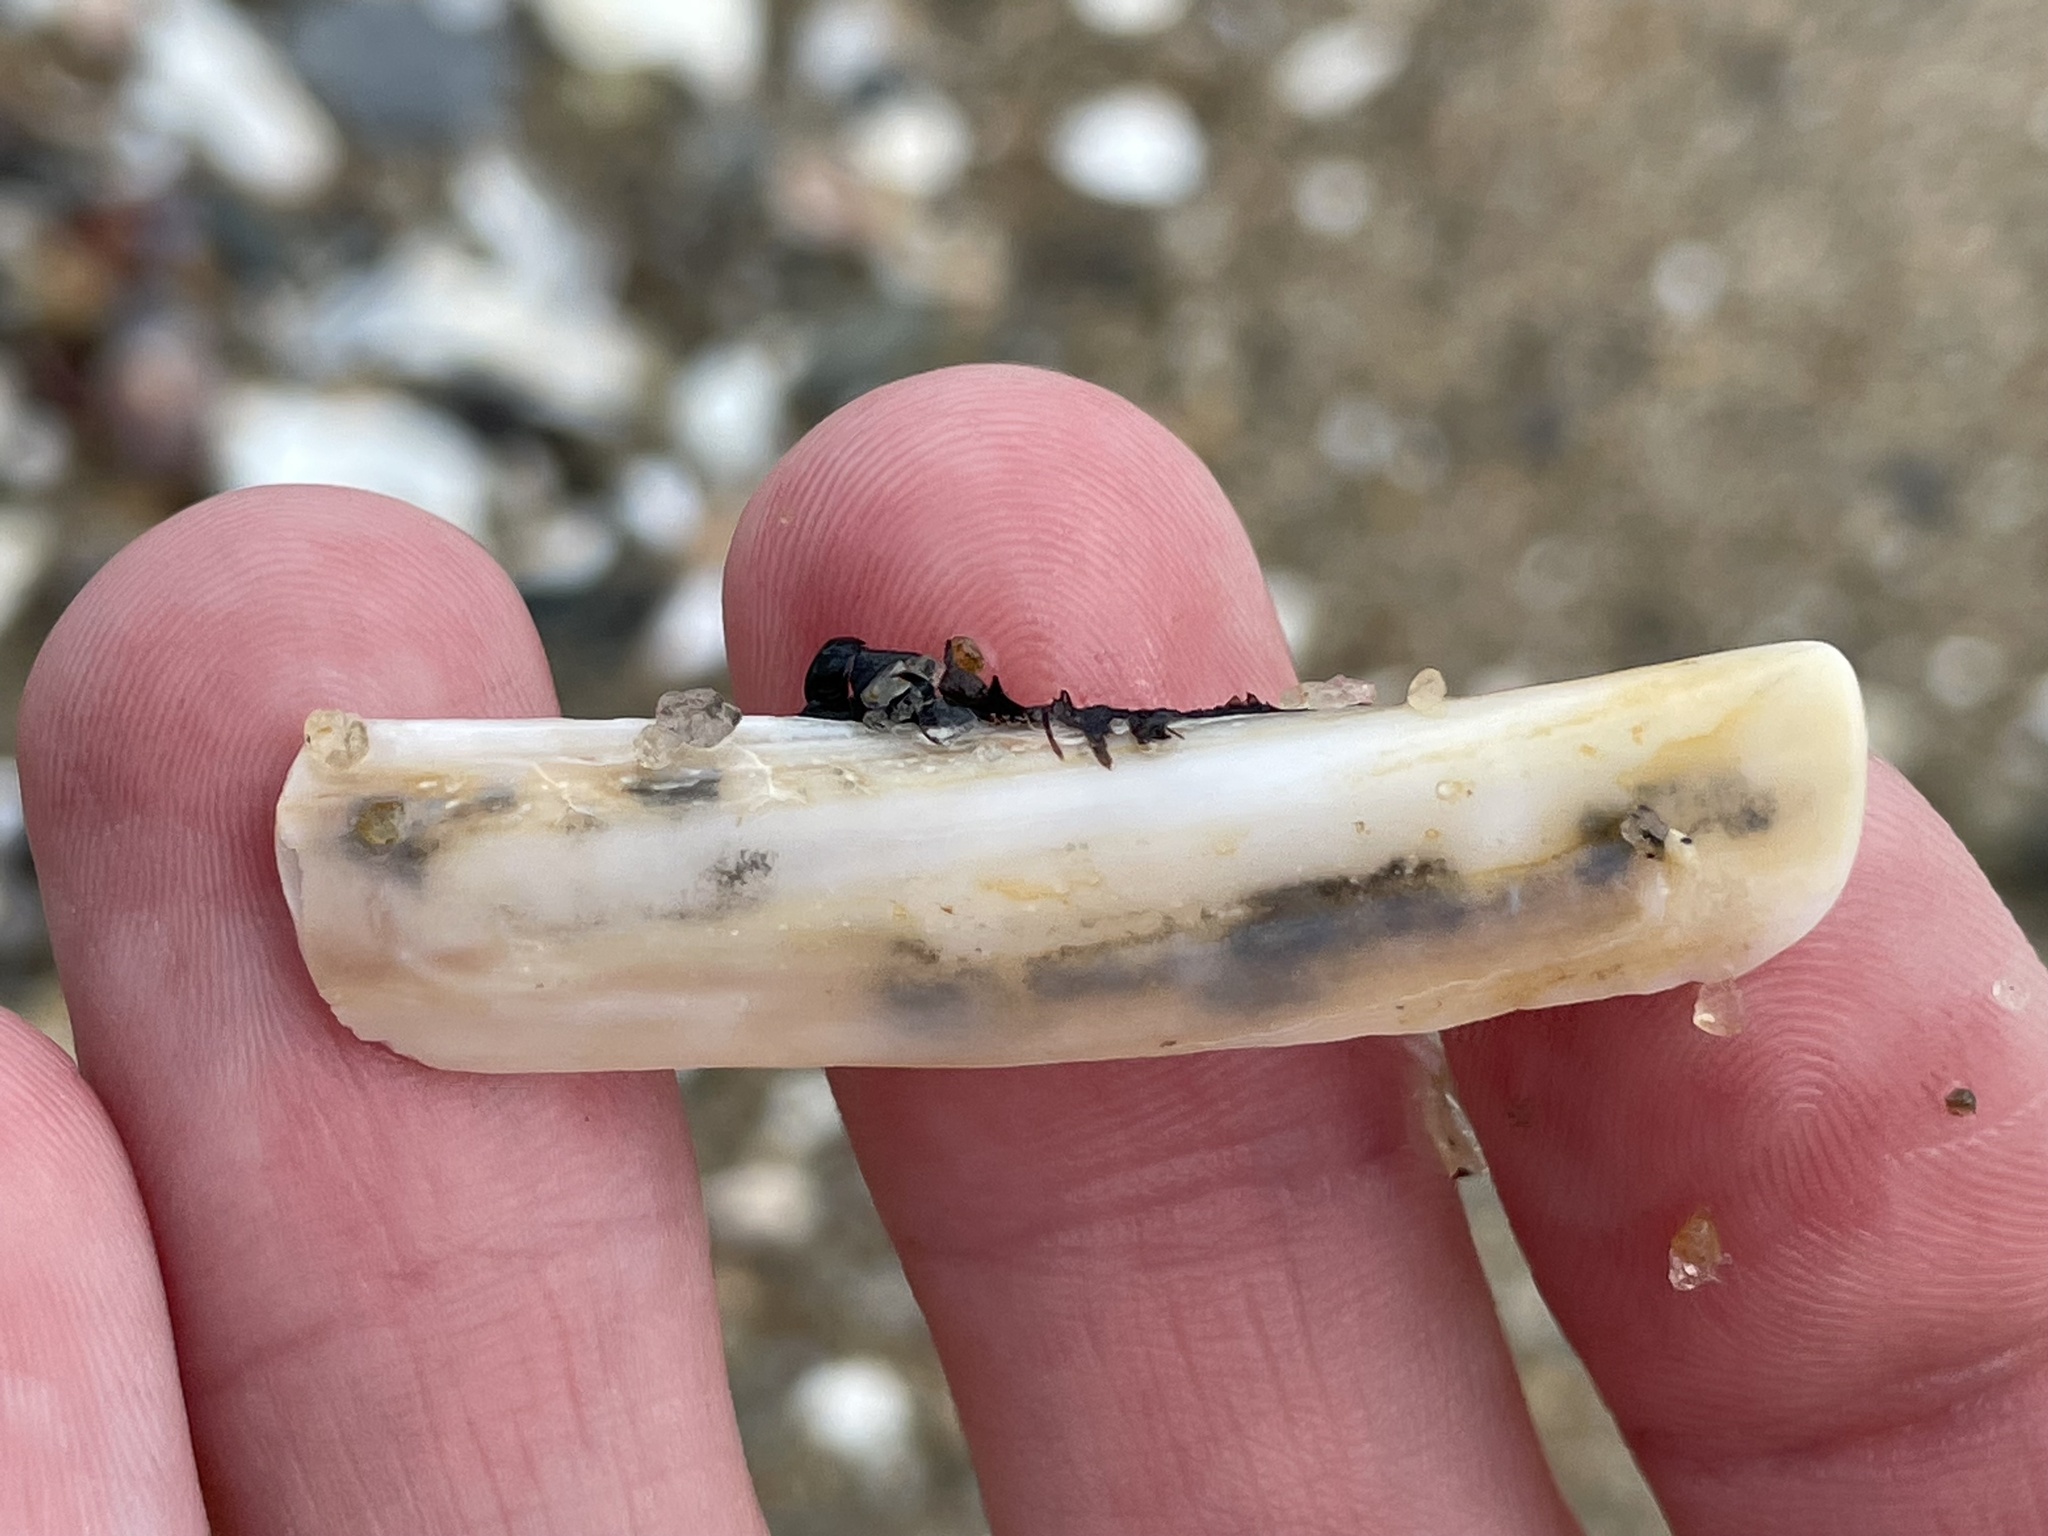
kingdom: Animalia
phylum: Mollusca
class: Bivalvia
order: Adapedonta
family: Pharidae
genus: Ensis
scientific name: Ensis leei
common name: American jack knife clam
